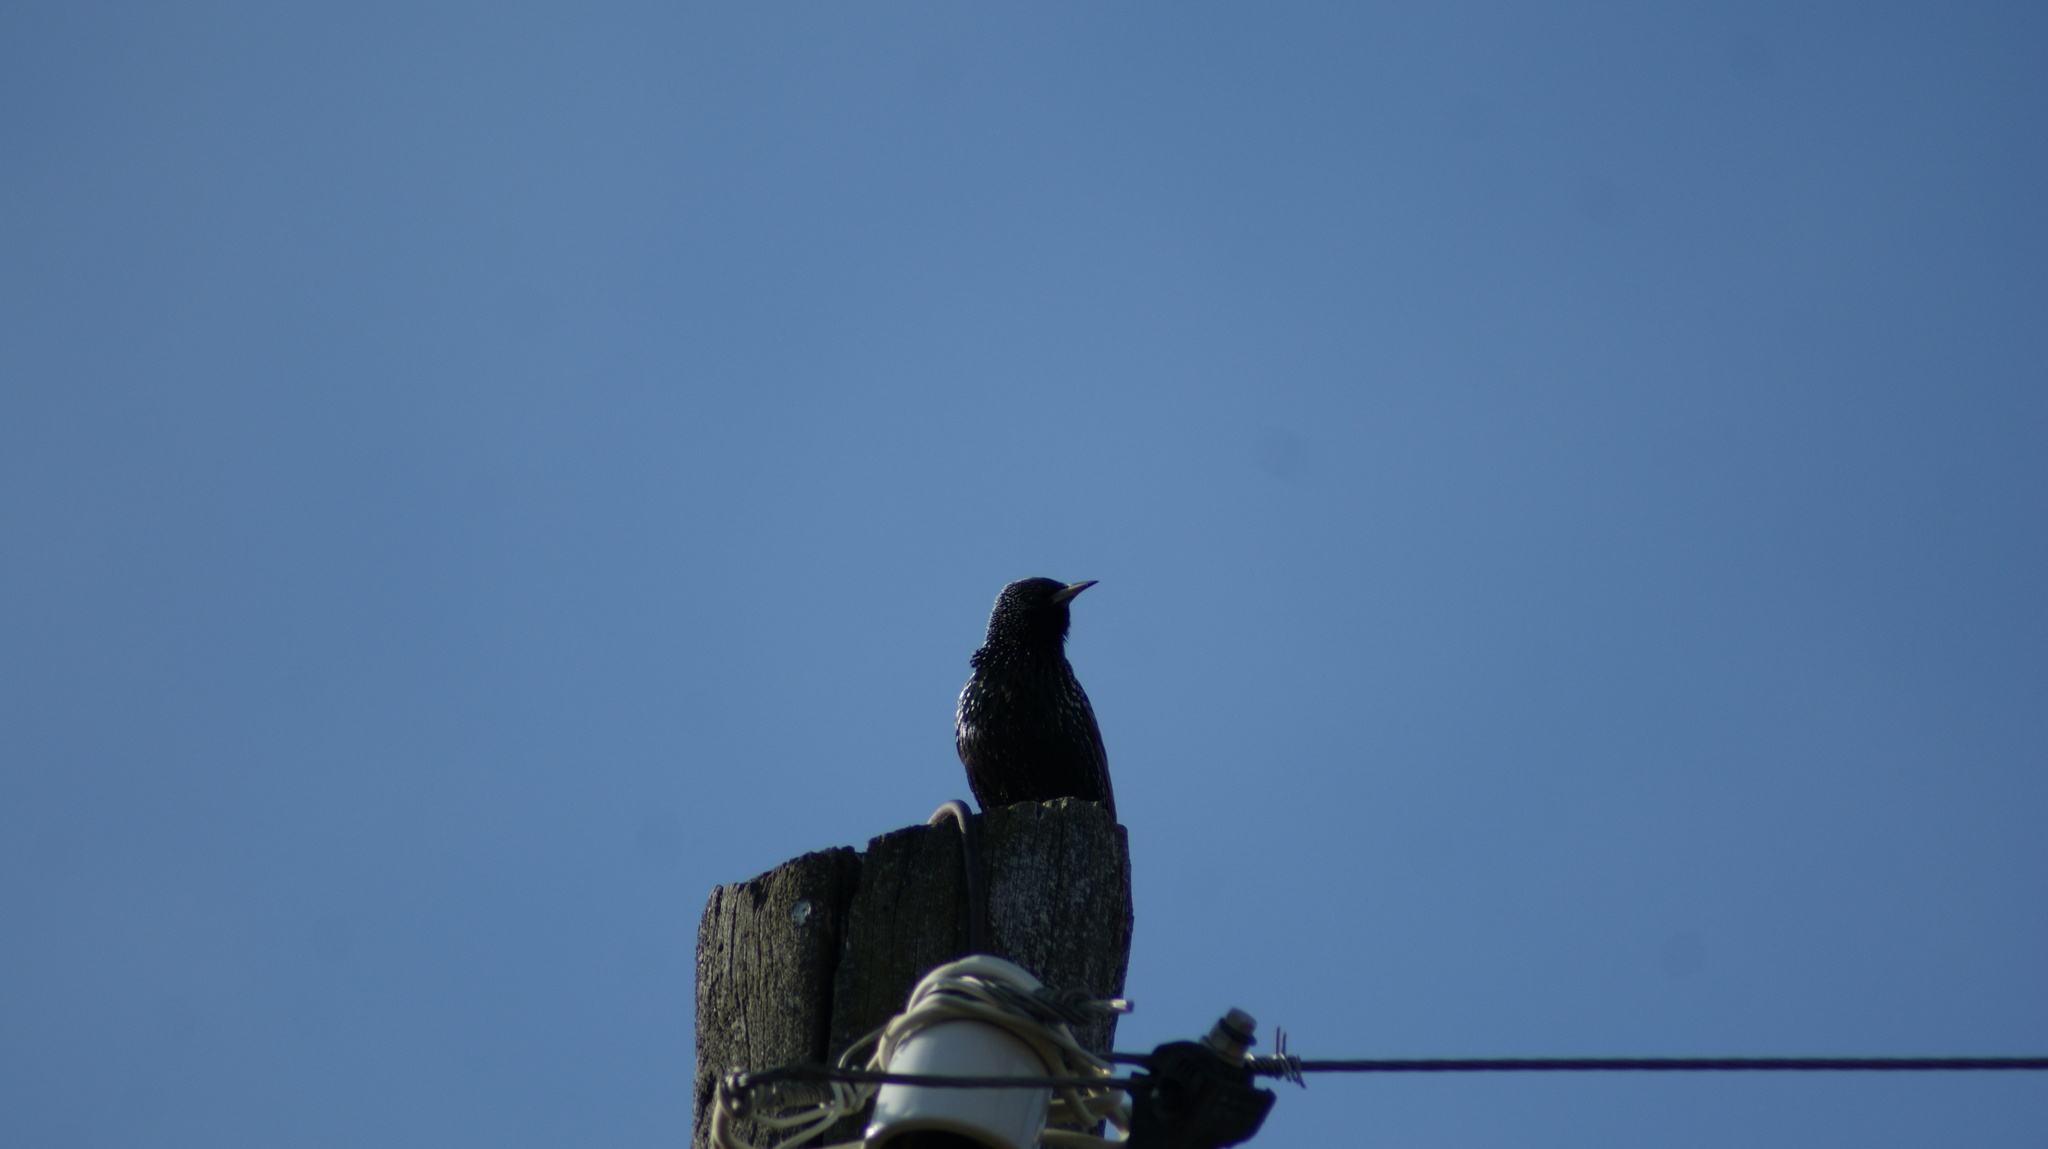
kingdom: Animalia
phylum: Chordata
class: Aves
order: Passeriformes
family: Sturnidae
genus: Sturnus
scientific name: Sturnus vulgaris
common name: Common starling
